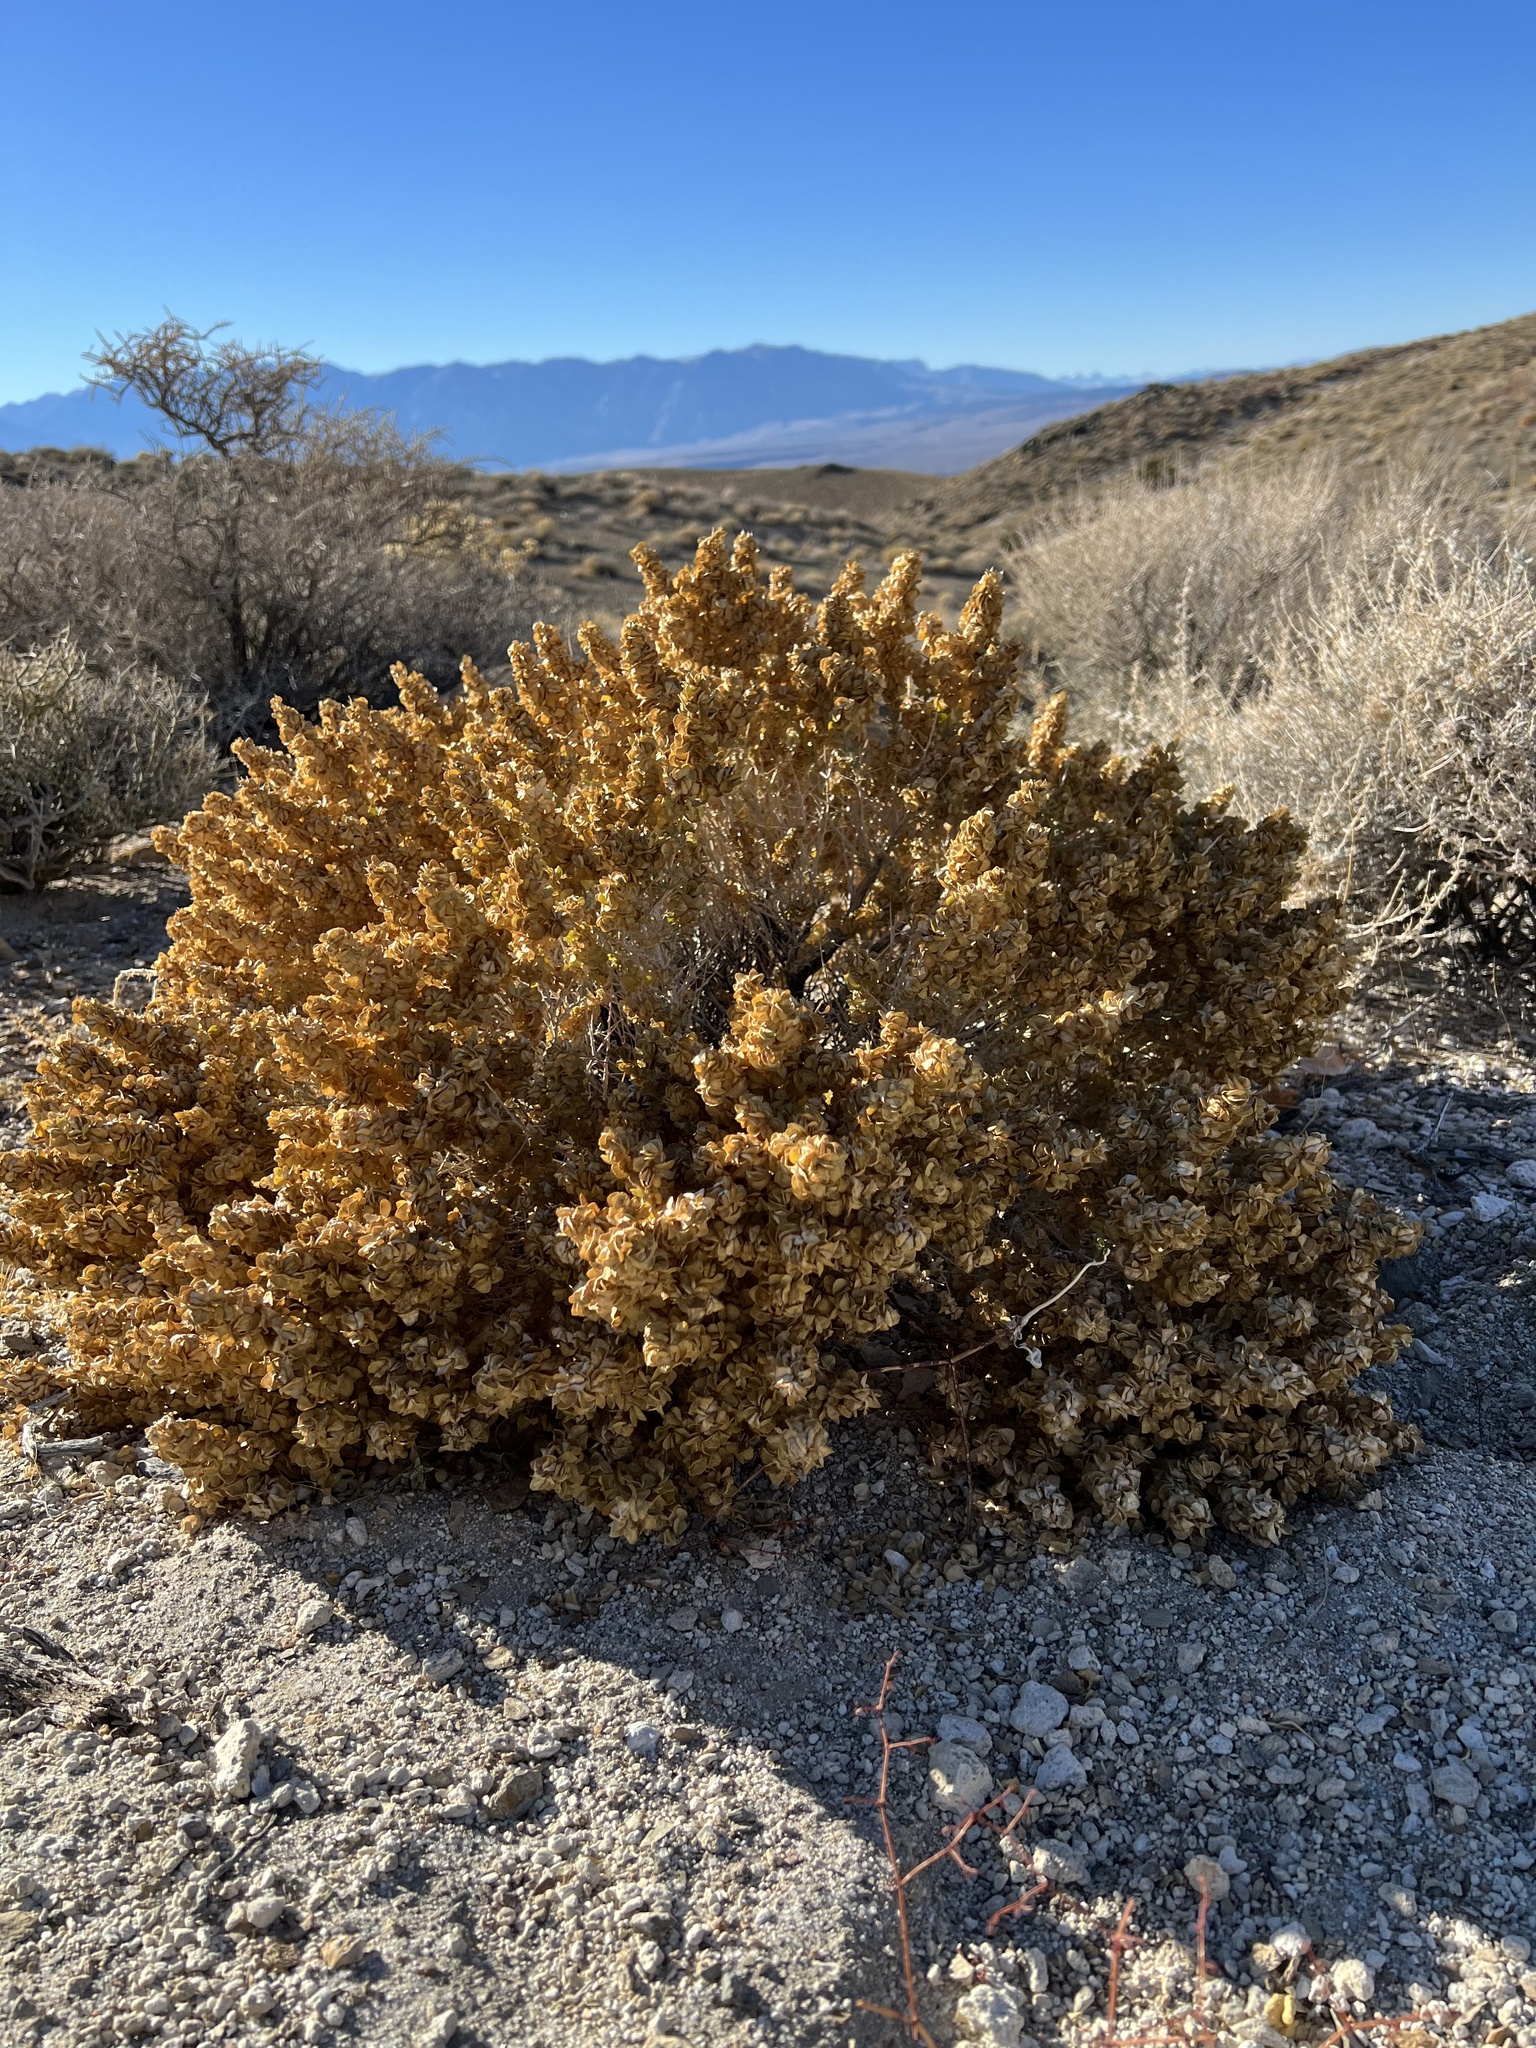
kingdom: Plantae
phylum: Tracheophyta
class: Magnoliopsida
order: Caryophyllales
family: Amaranthaceae
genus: Atriplex
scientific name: Atriplex confertifolia
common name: Shadscale
